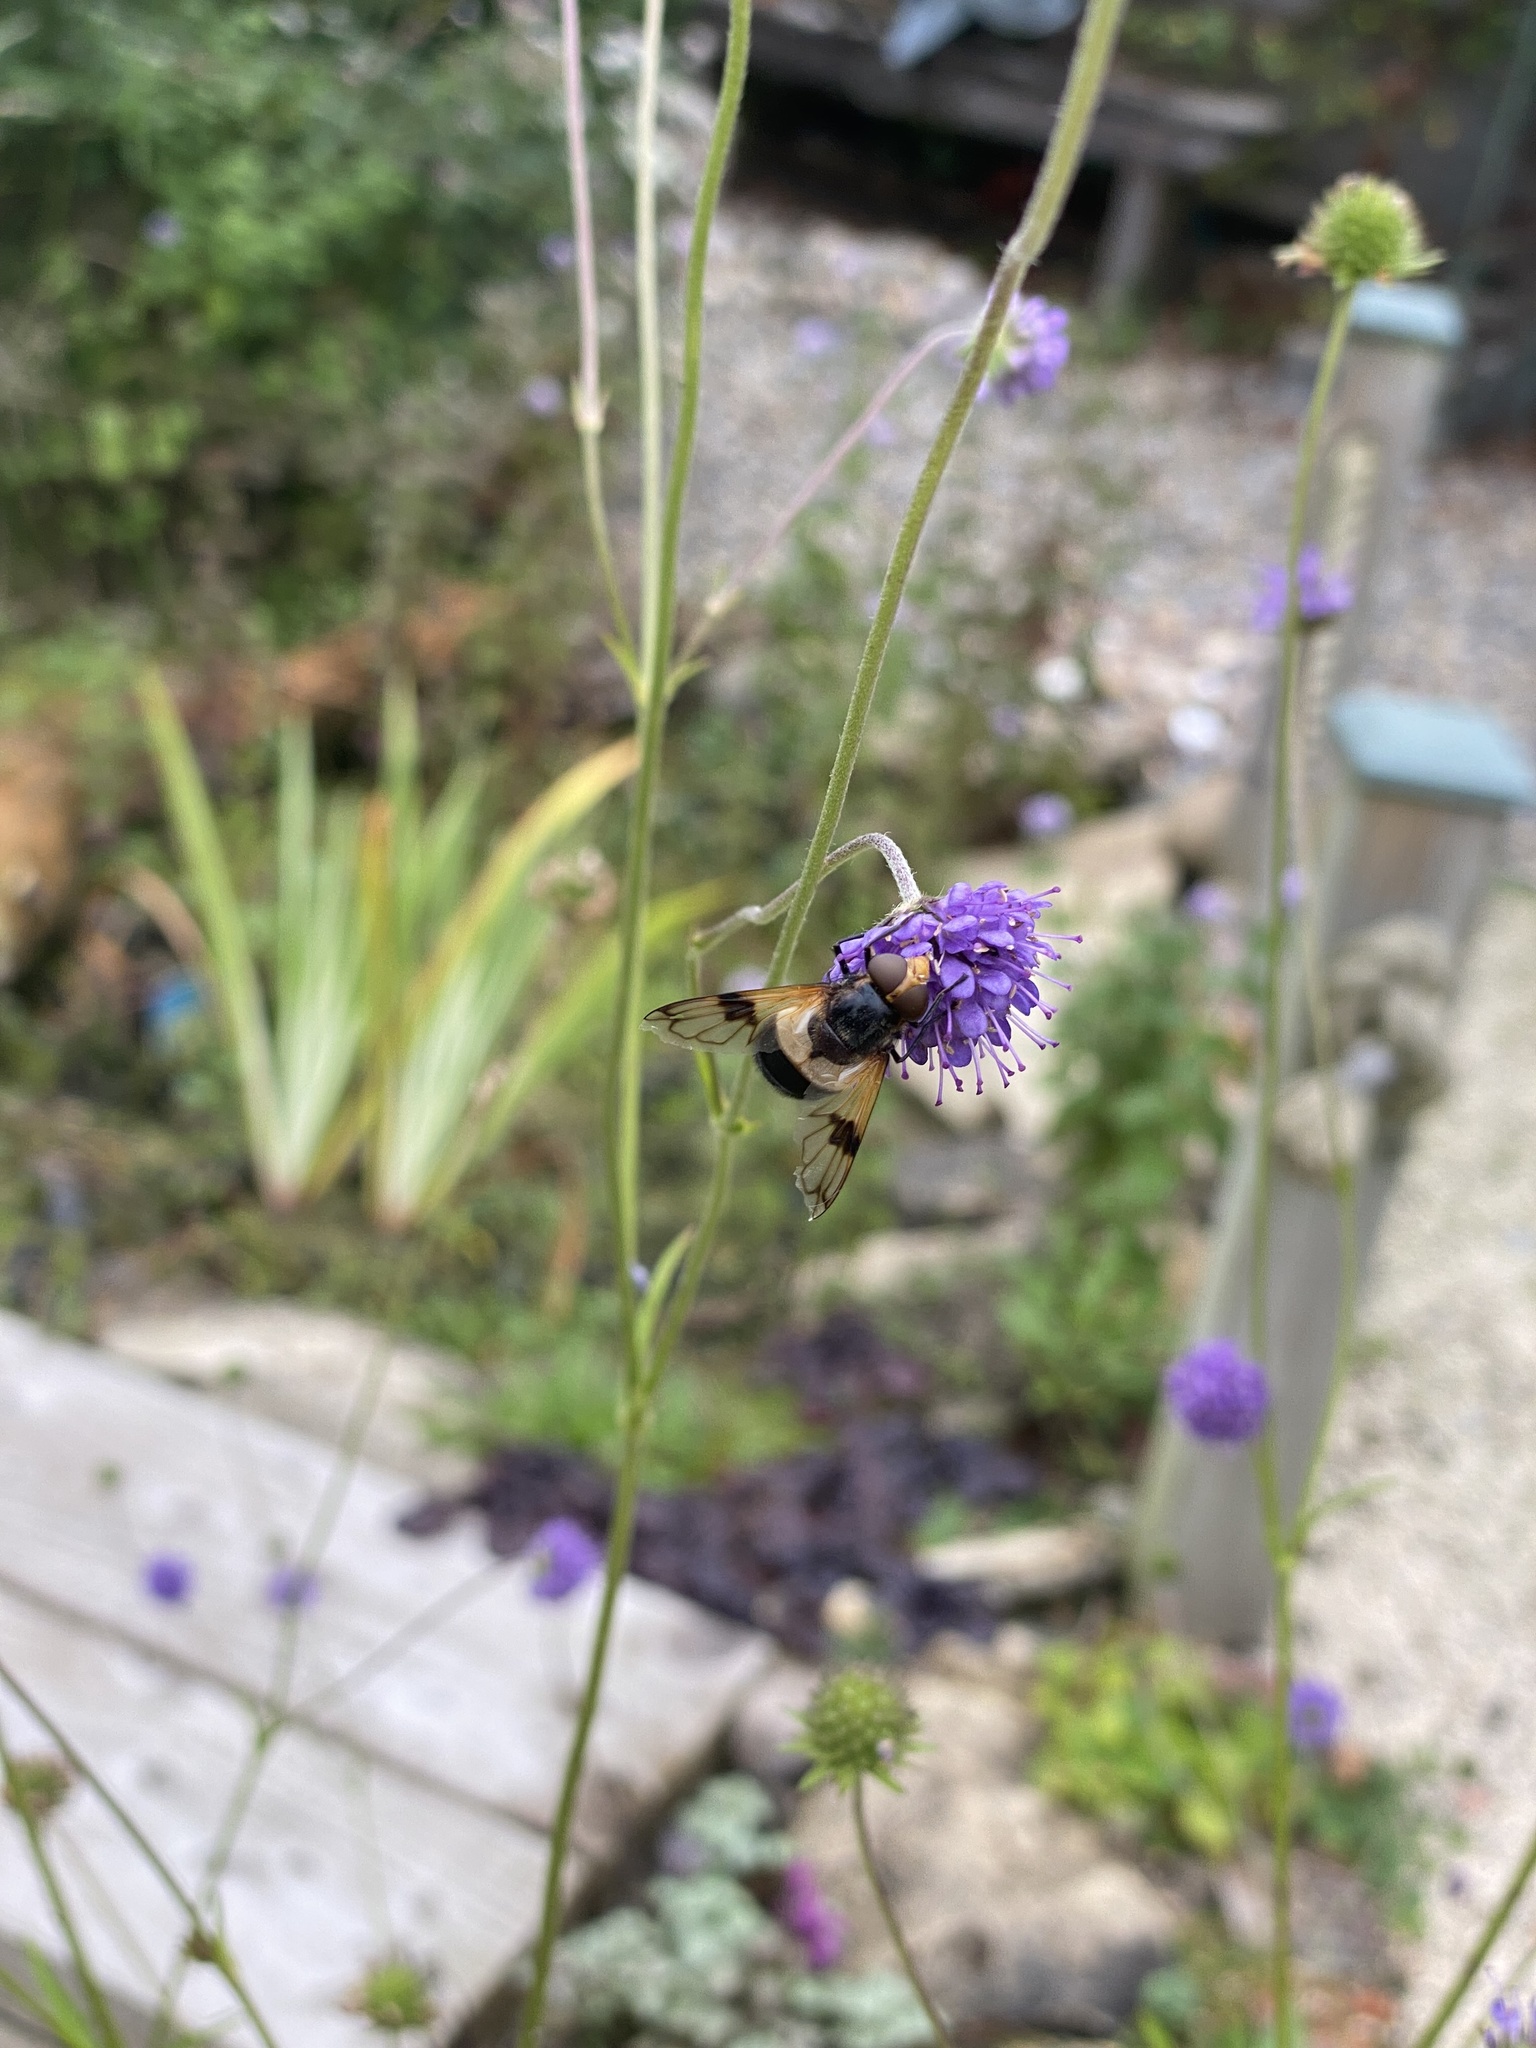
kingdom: Animalia
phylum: Arthropoda
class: Insecta
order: Diptera
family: Syrphidae
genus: Volucella
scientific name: Volucella pellucens
